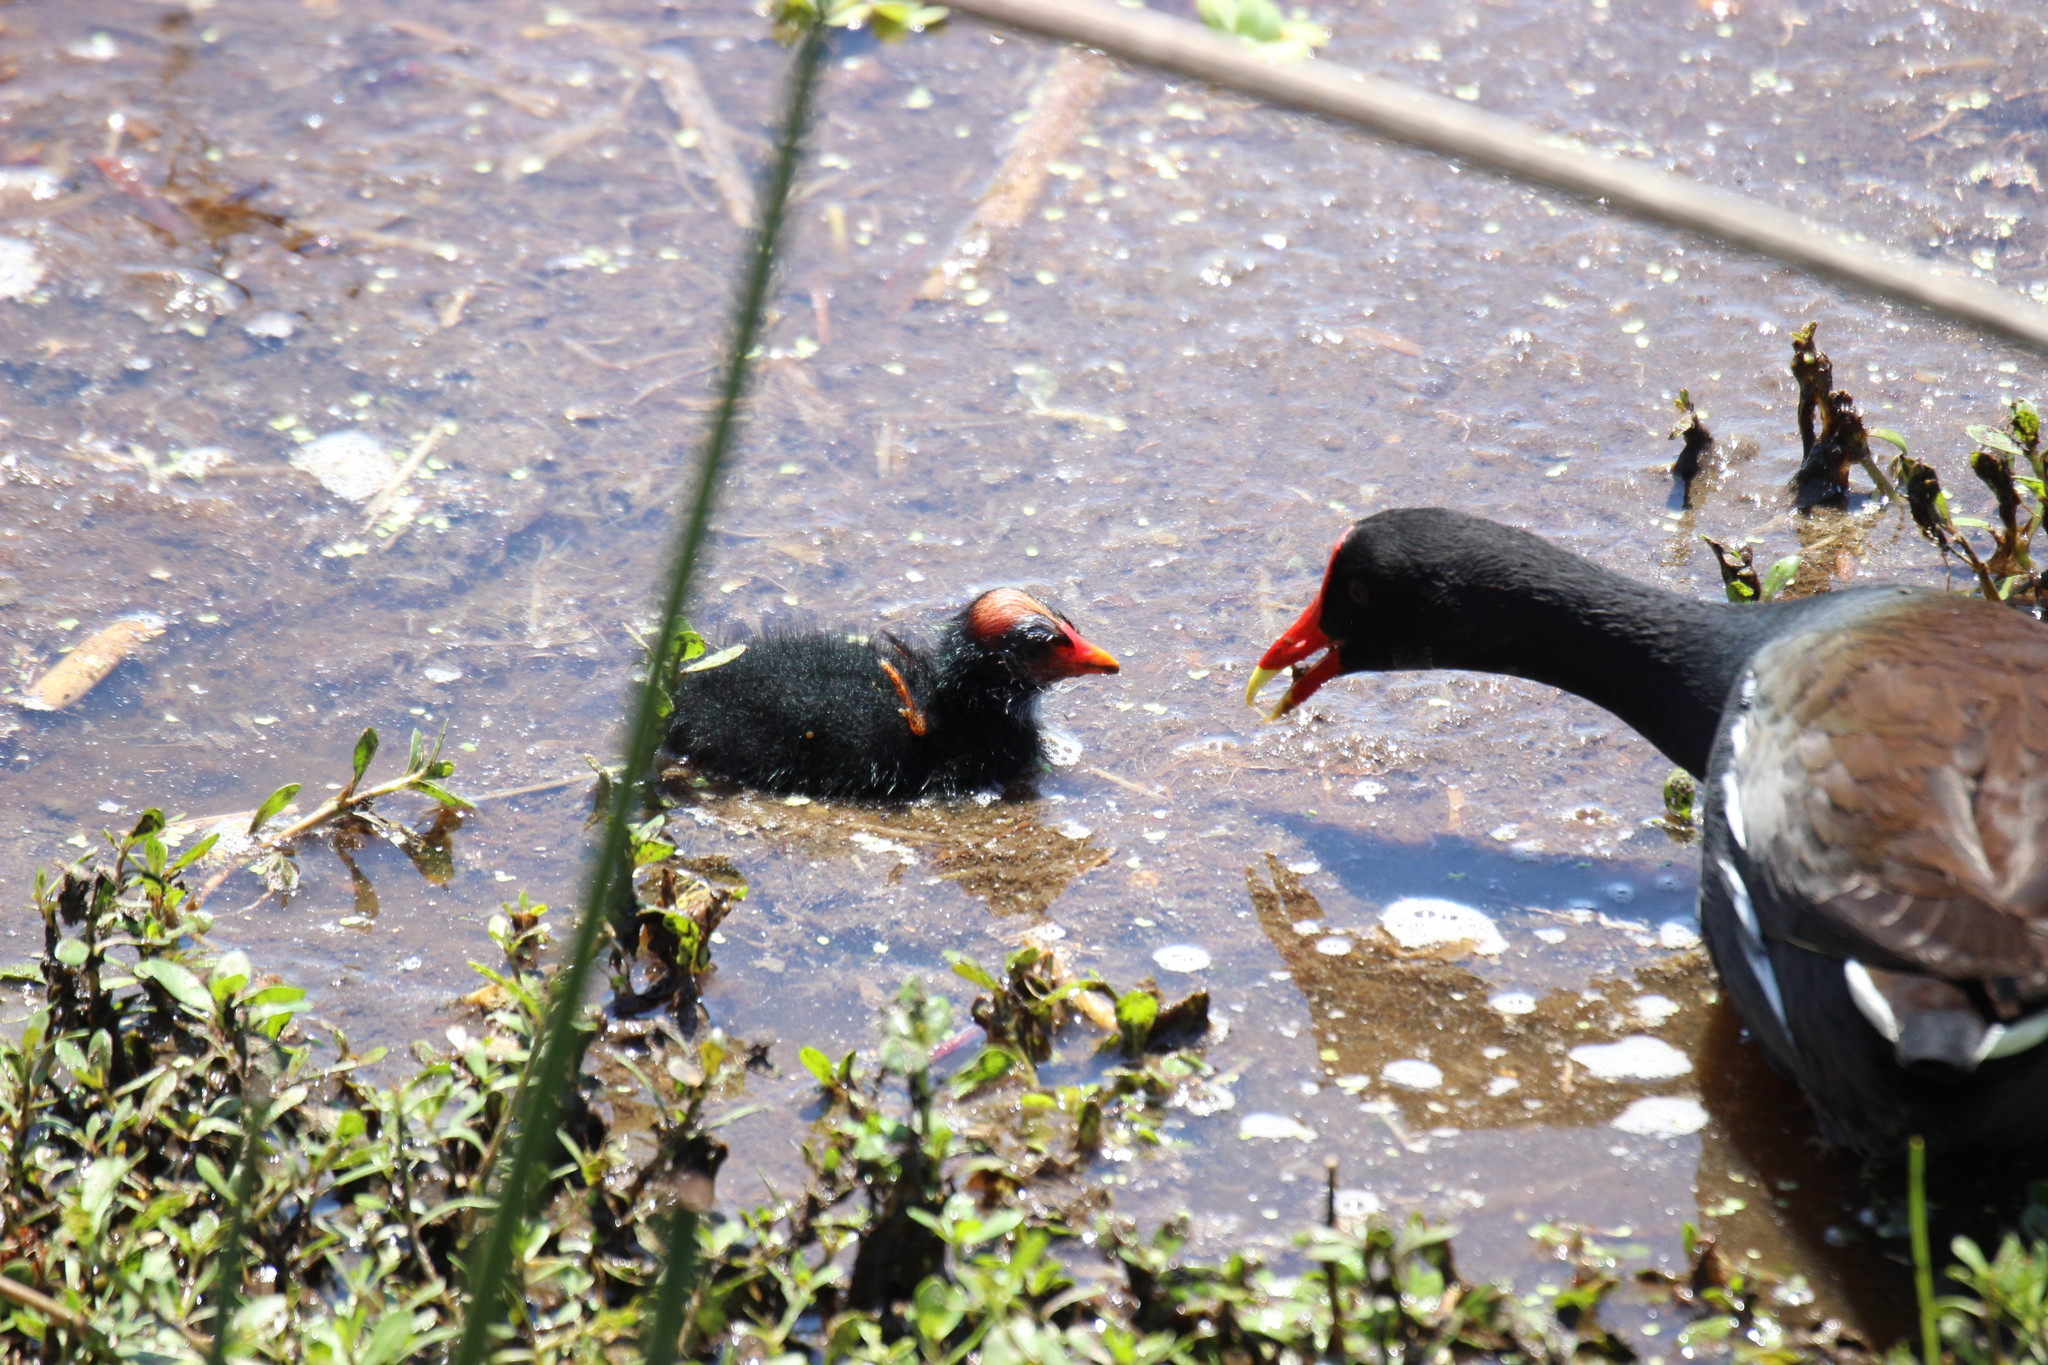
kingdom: Animalia
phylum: Chordata
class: Aves
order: Gruiformes
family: Rallidae
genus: Gallinula
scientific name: Gallinula chloropus
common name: Common moorhen
